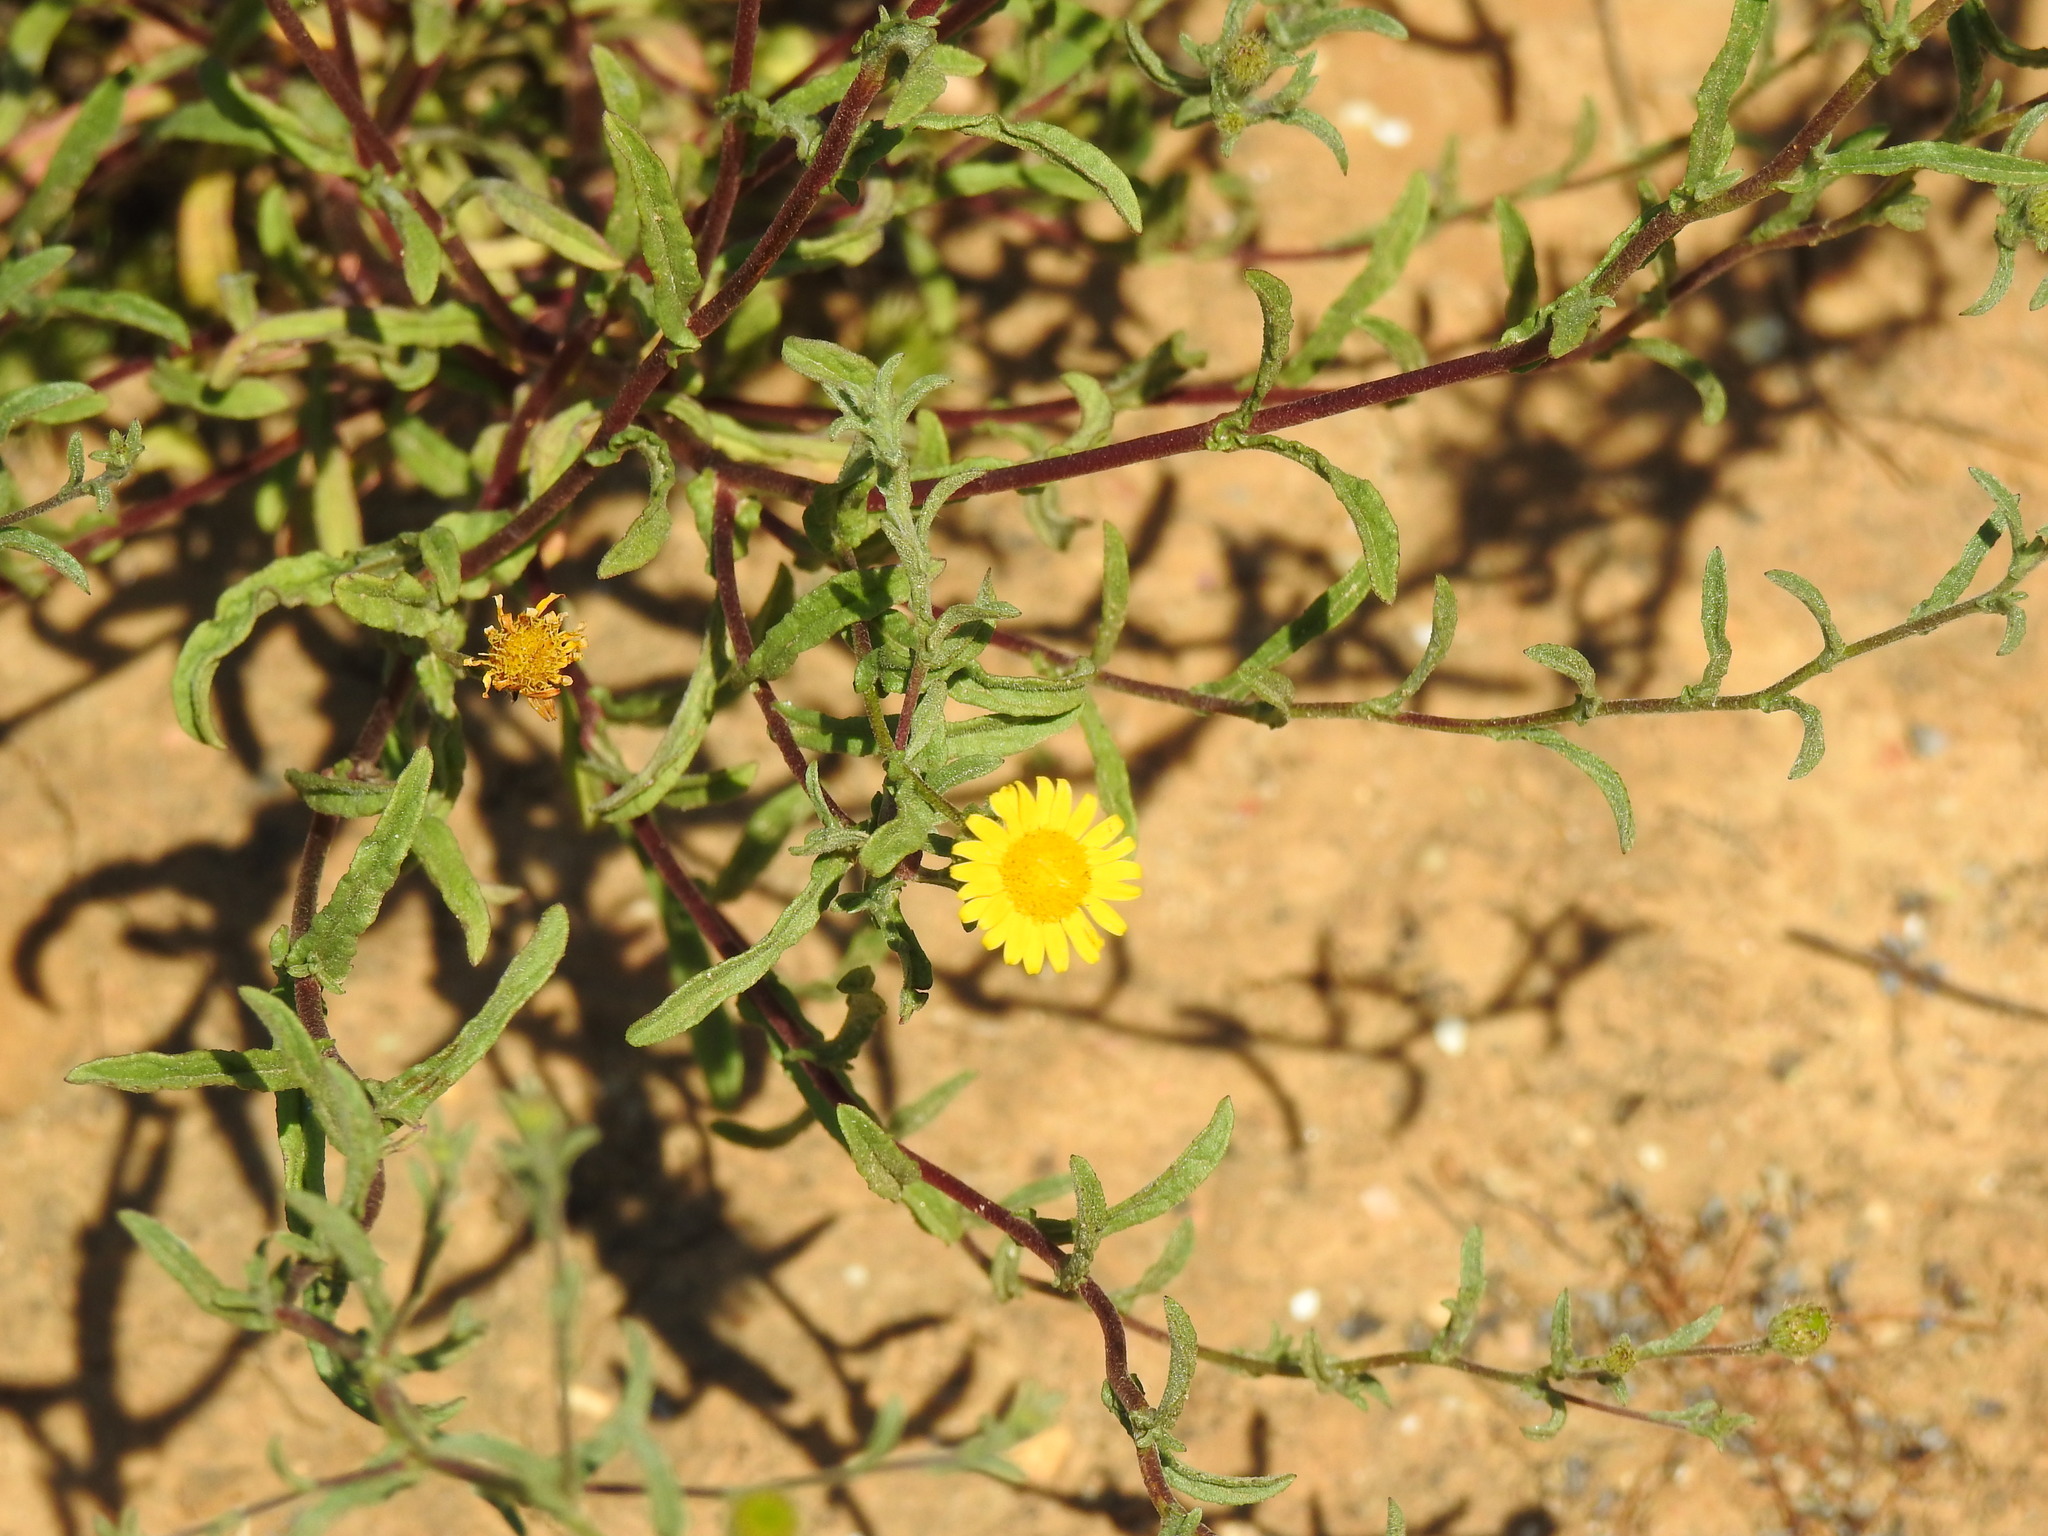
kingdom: Plantae
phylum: Tracheophyta
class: Magnoliopsida
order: Asterales
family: Asteraceae
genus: Pulicaria
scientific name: Pulicaria paludosa
